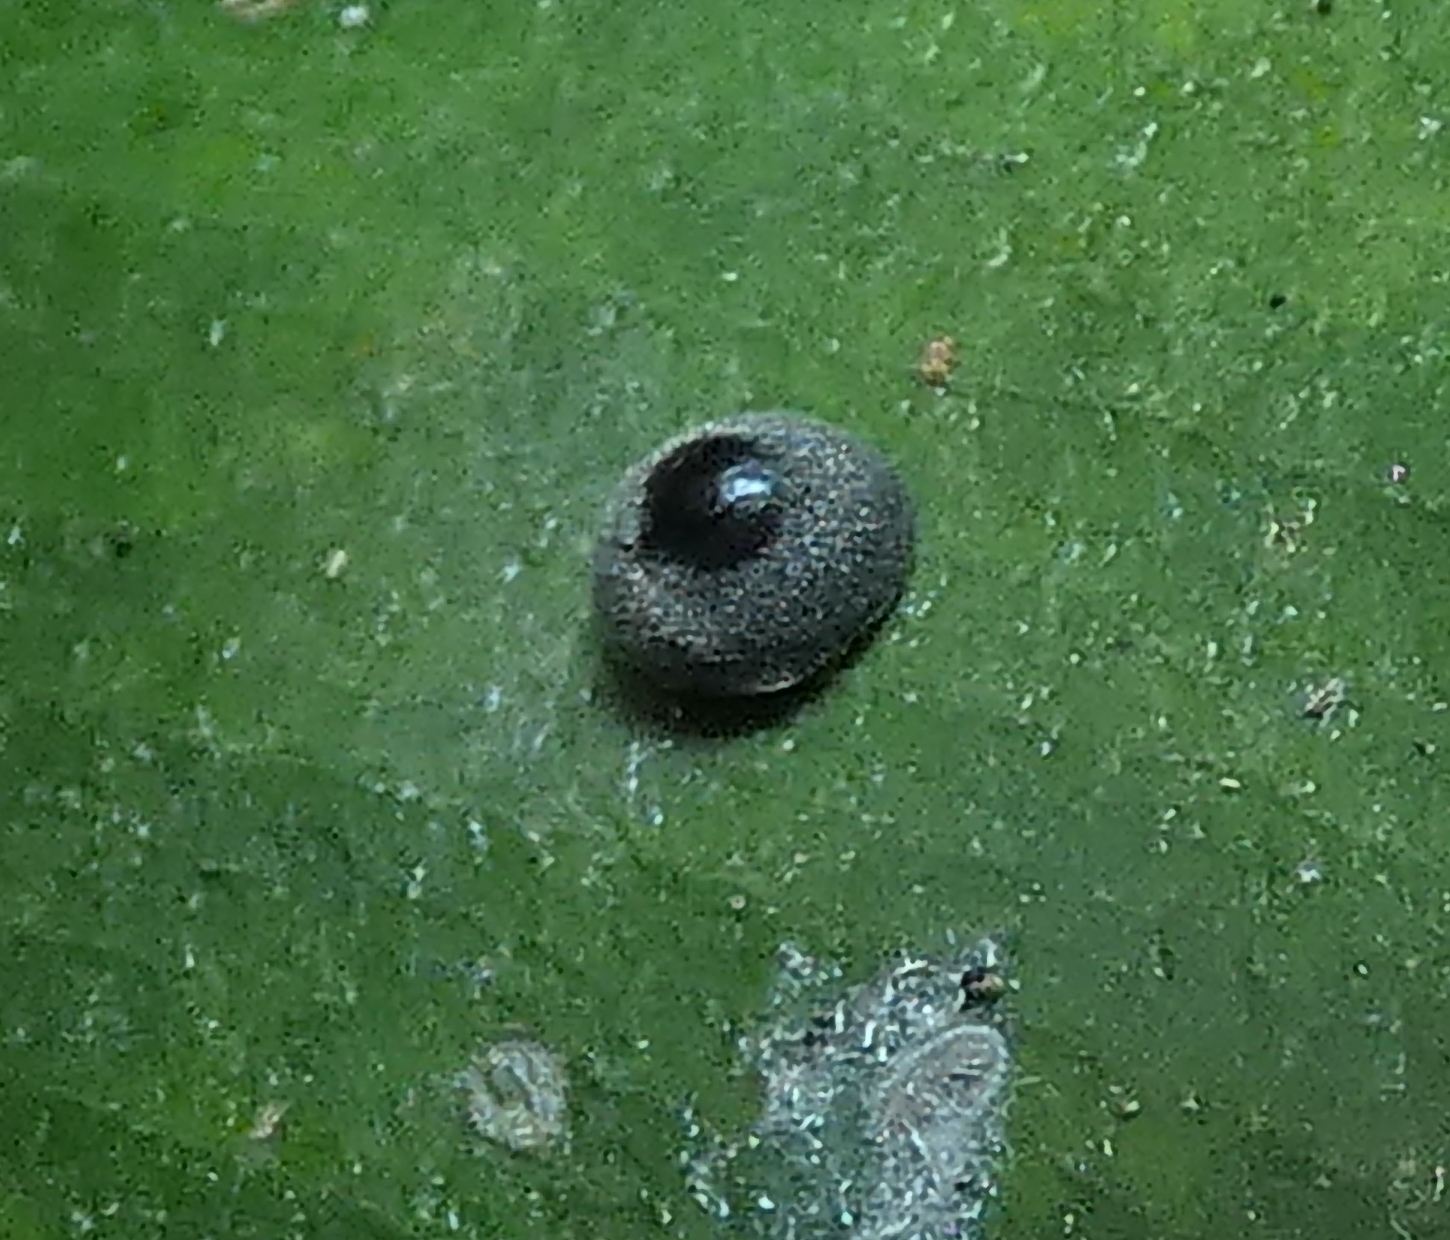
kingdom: Animalia
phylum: Arthropoda
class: Insecta
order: Coleoptera
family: Coccinellidae
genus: Azya
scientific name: Azya
